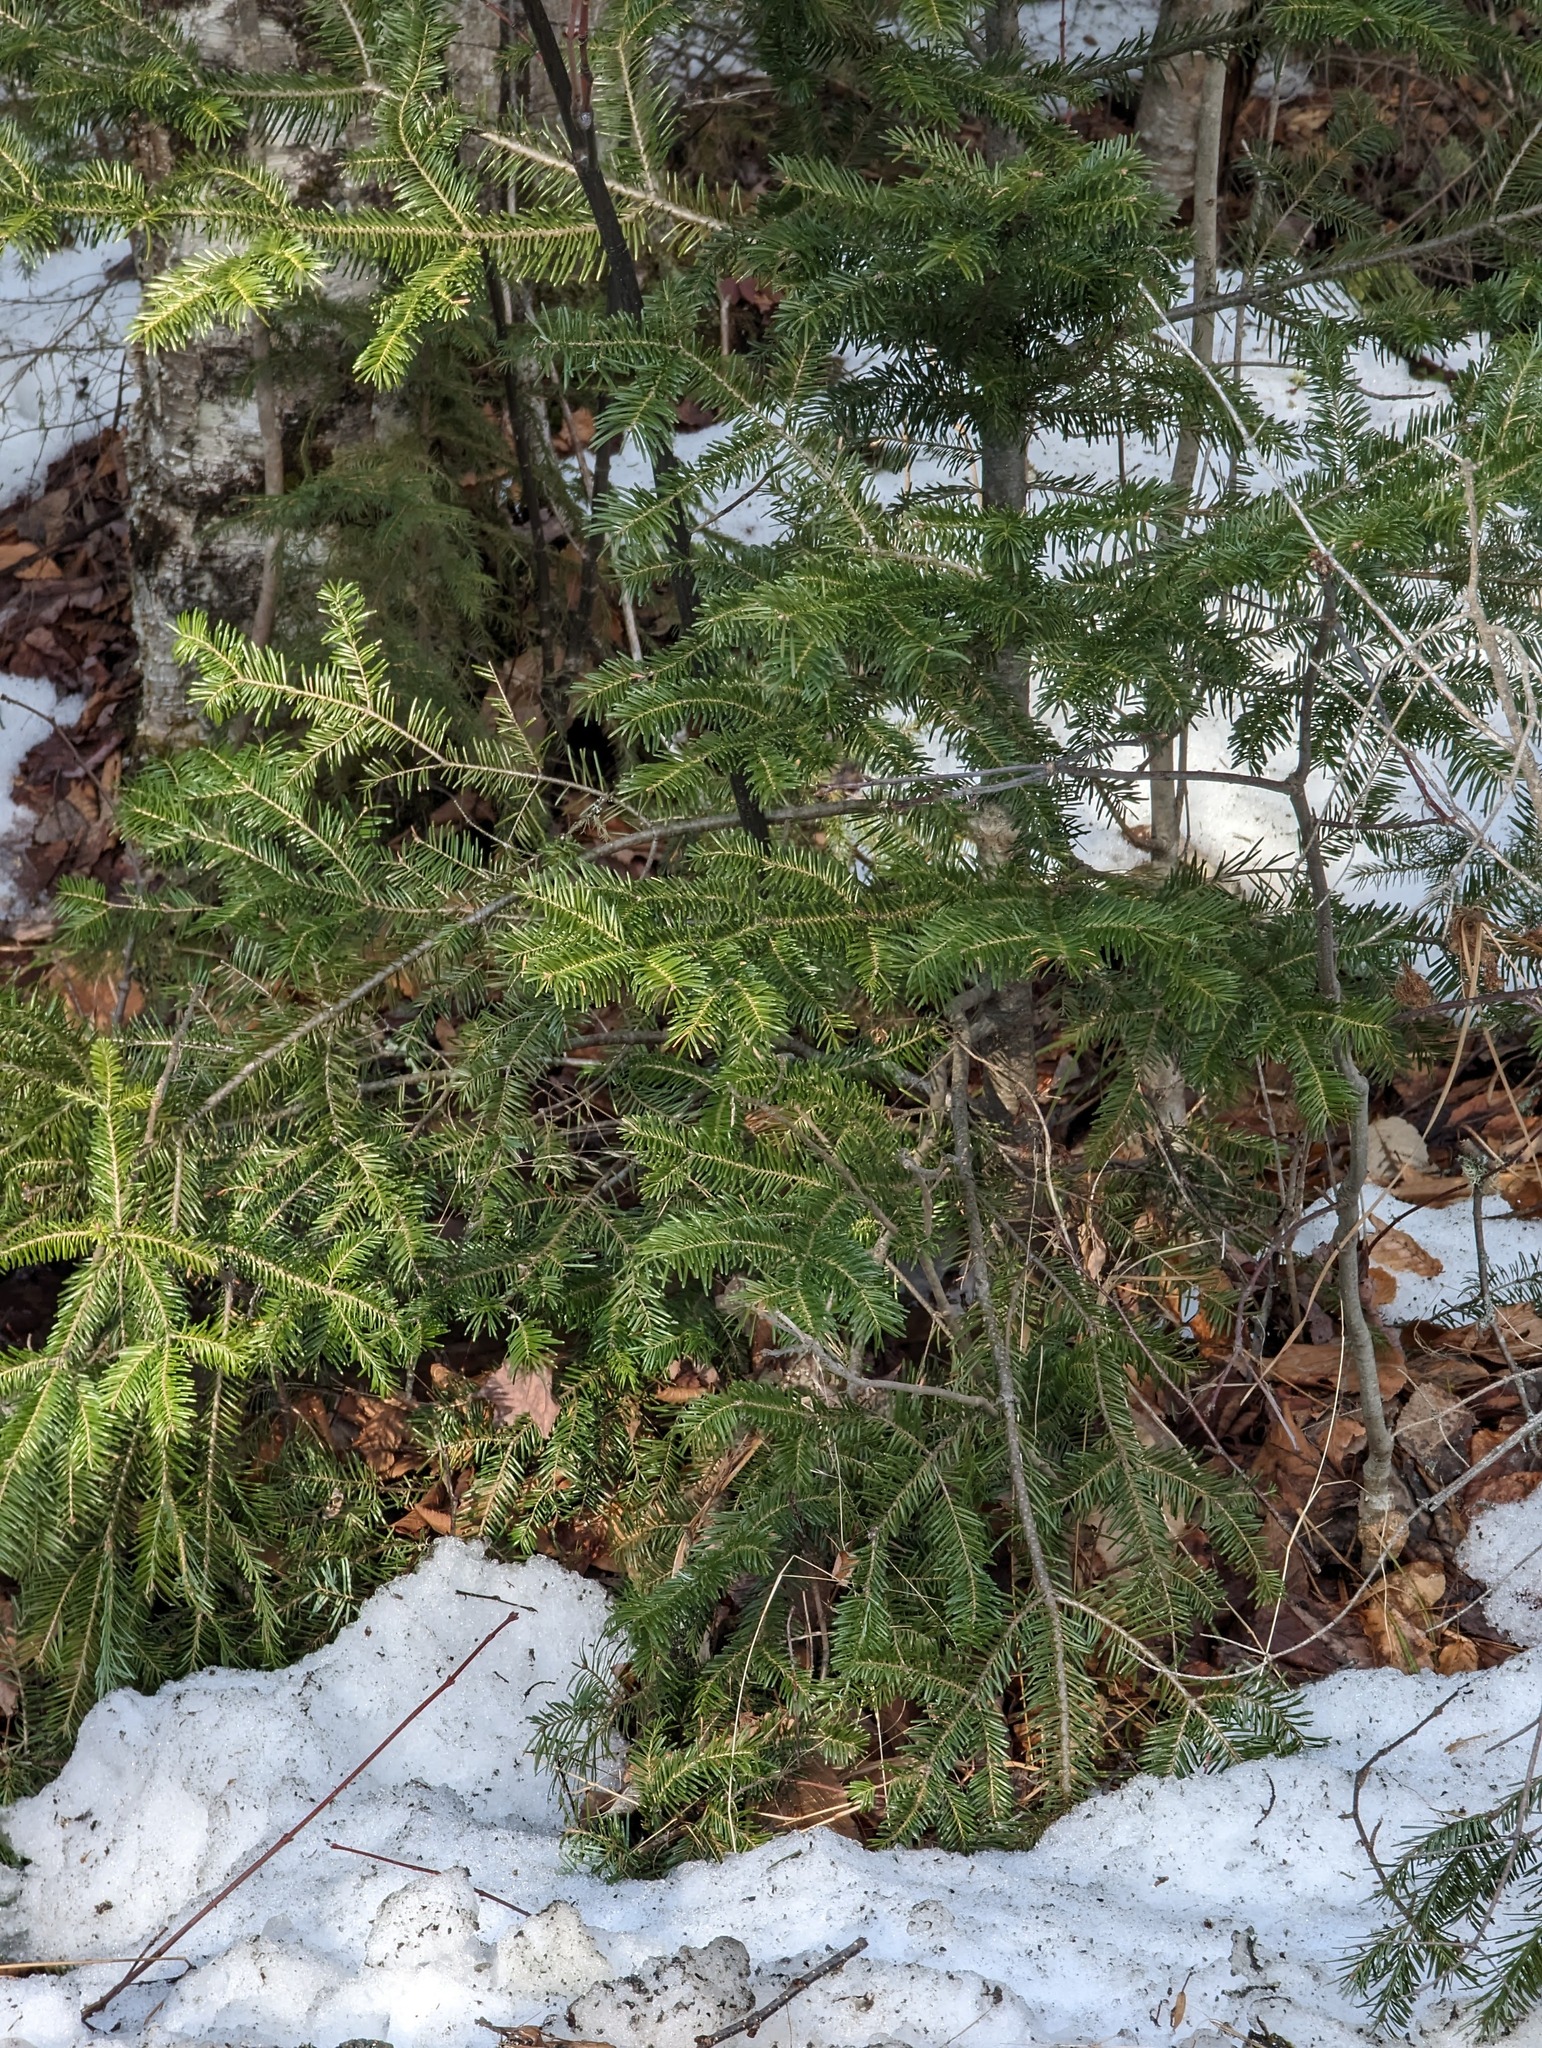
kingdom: Plantae
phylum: Tracheophyta
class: Pinopsida
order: Pinales
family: Pinaceae
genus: Abies
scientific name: Abies balsamea
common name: Balsam fir
